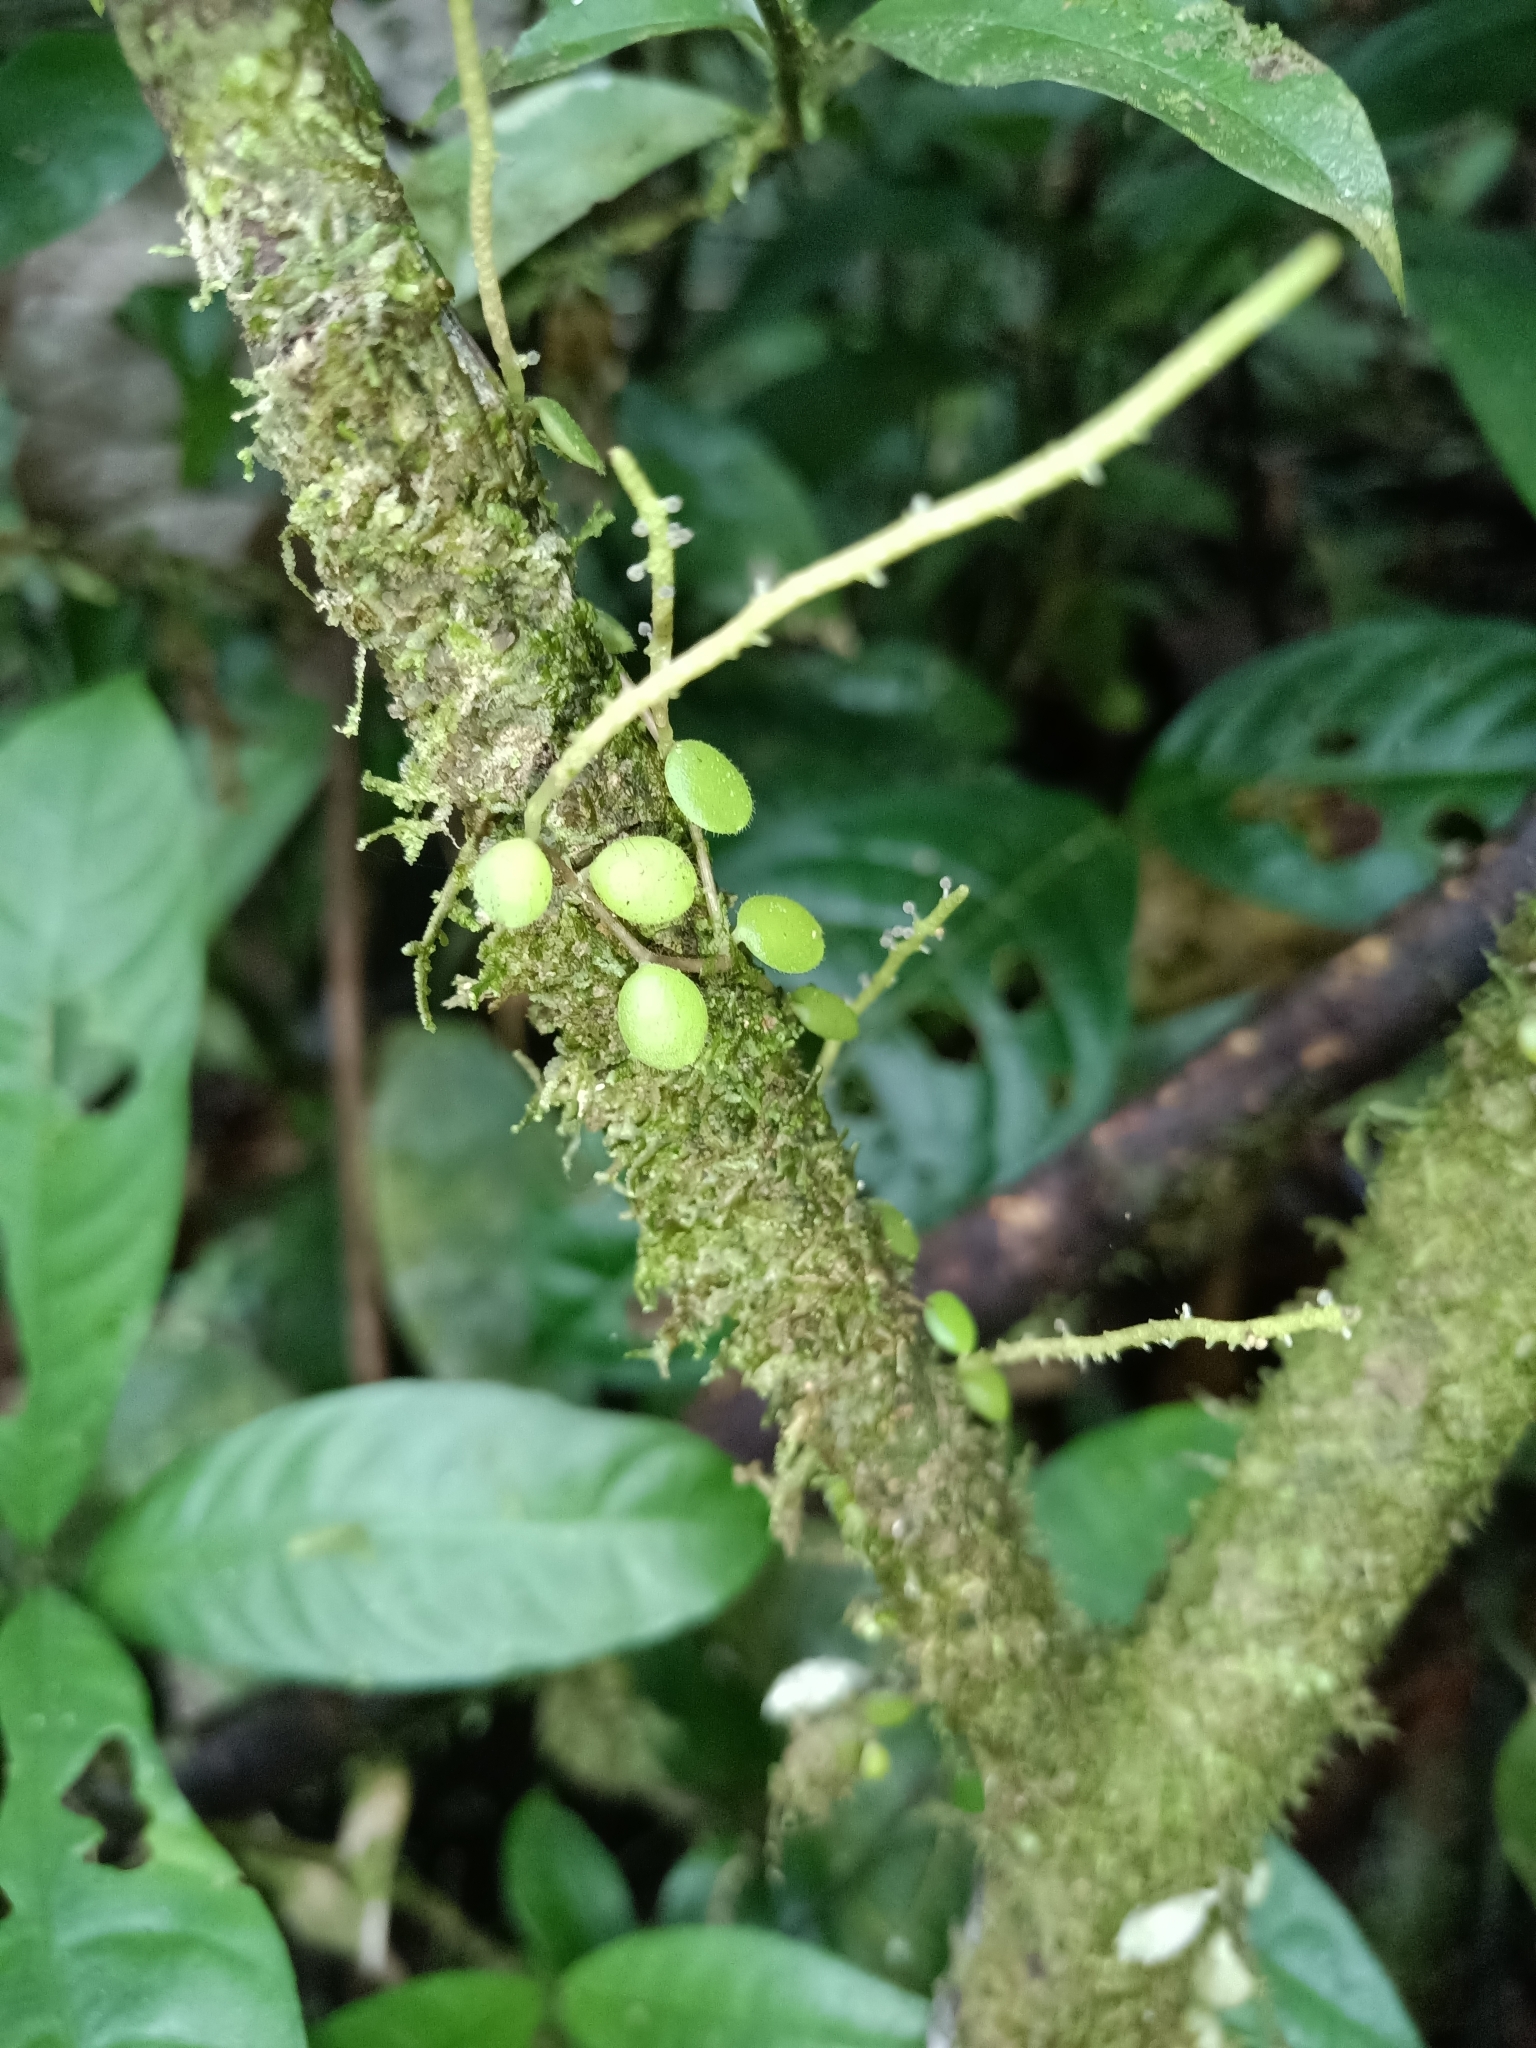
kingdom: Plantae
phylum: Tracheophyta
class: Magnoliopsida
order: Piperales
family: Piperaceae
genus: Peperomia
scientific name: Peperomia rotundifolia
